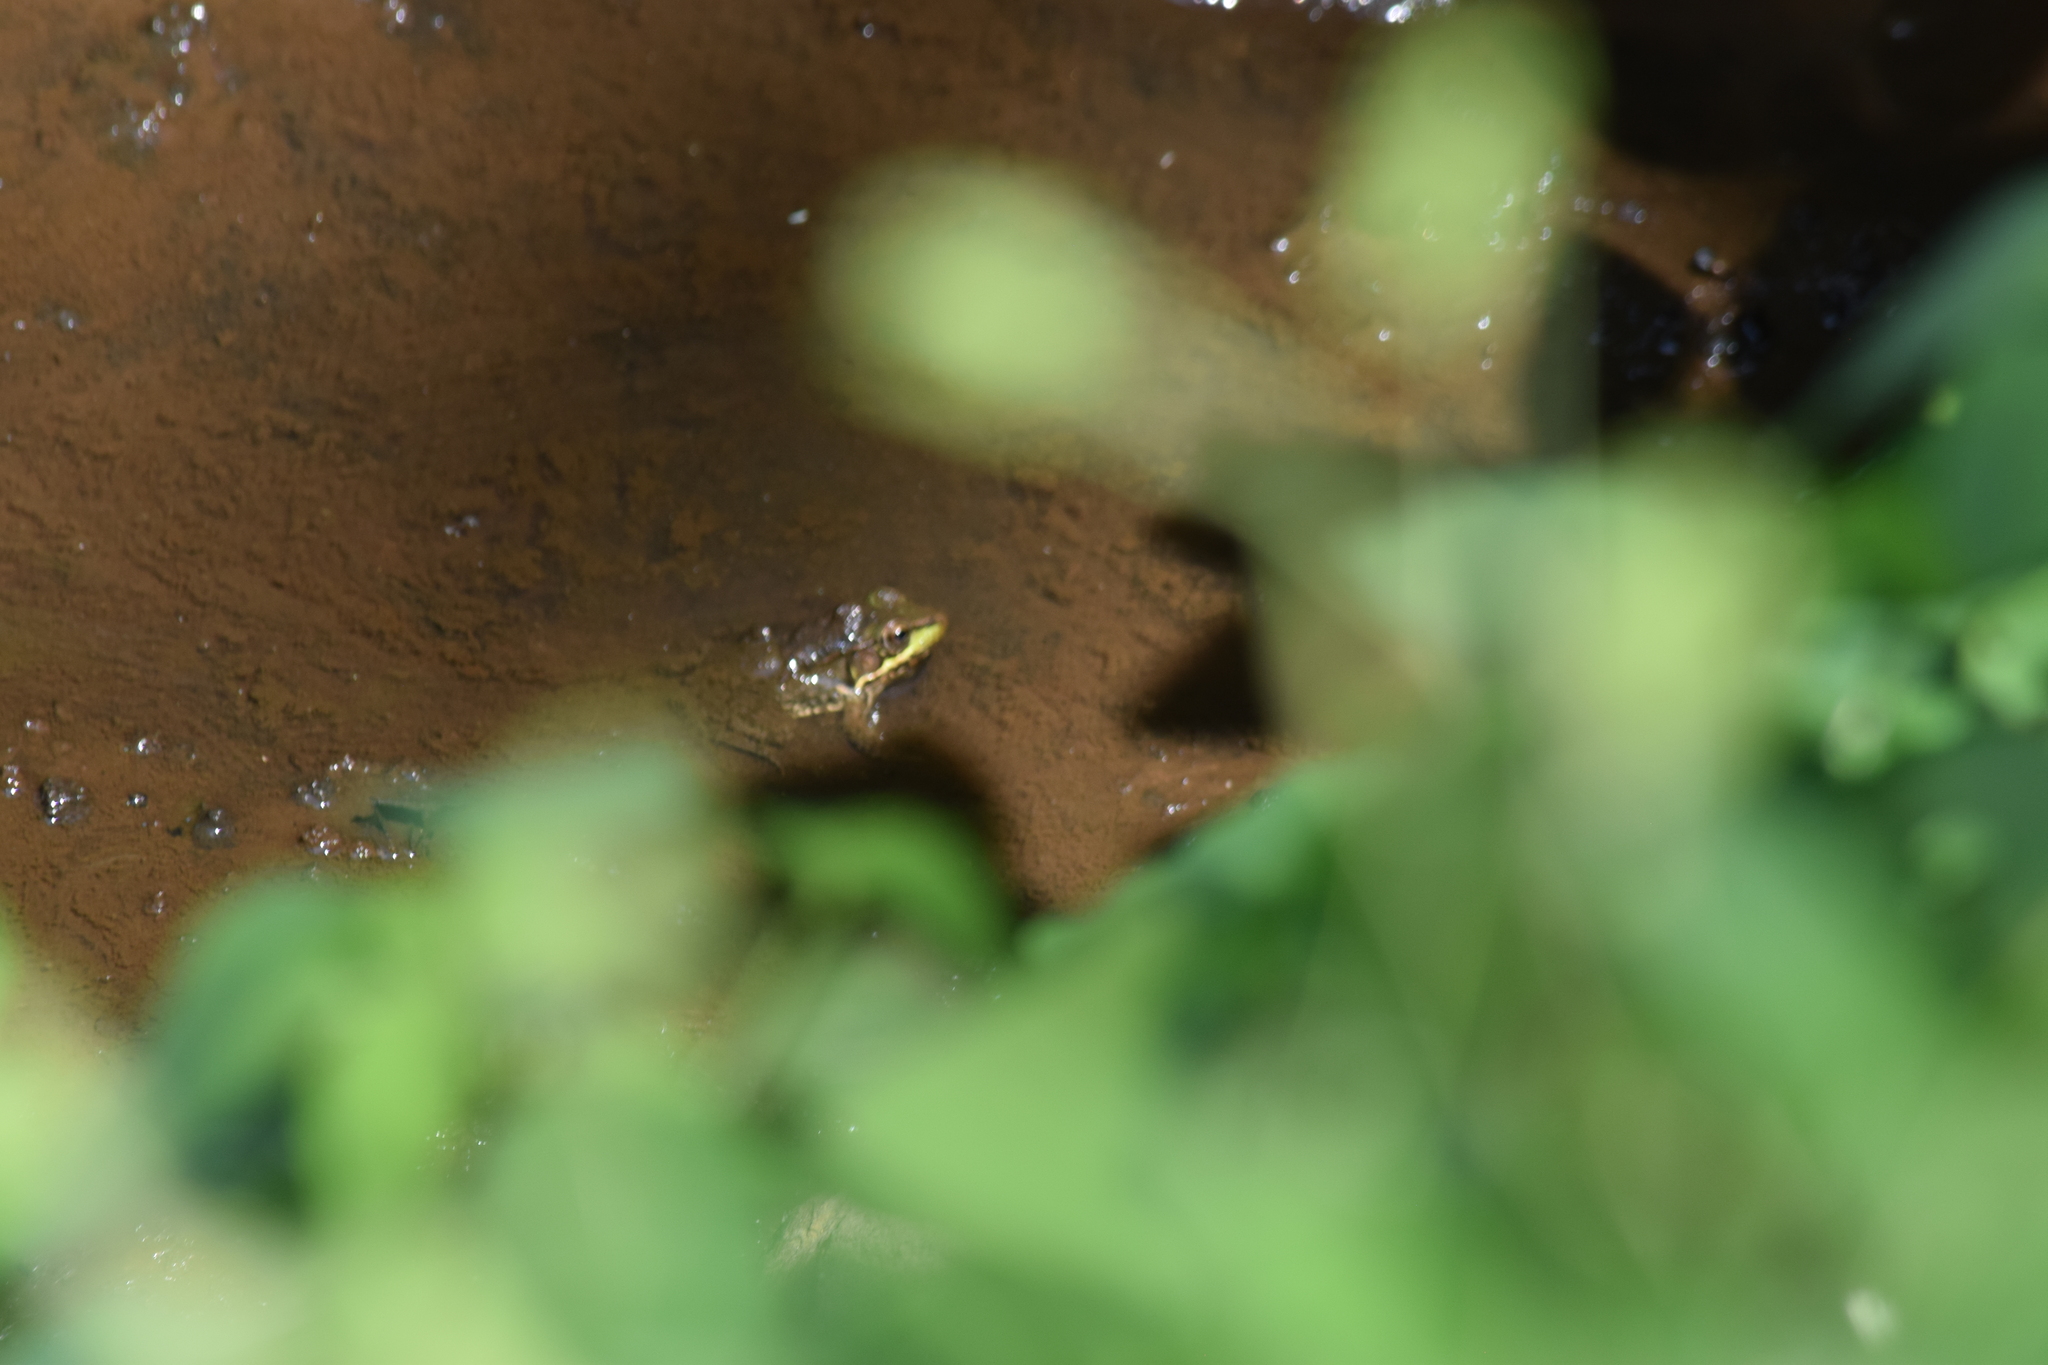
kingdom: Animalia
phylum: Chordata
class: Amphibia
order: Anura
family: Ranidae
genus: Lithobates
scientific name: Lithobates clamitans
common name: Green frog
